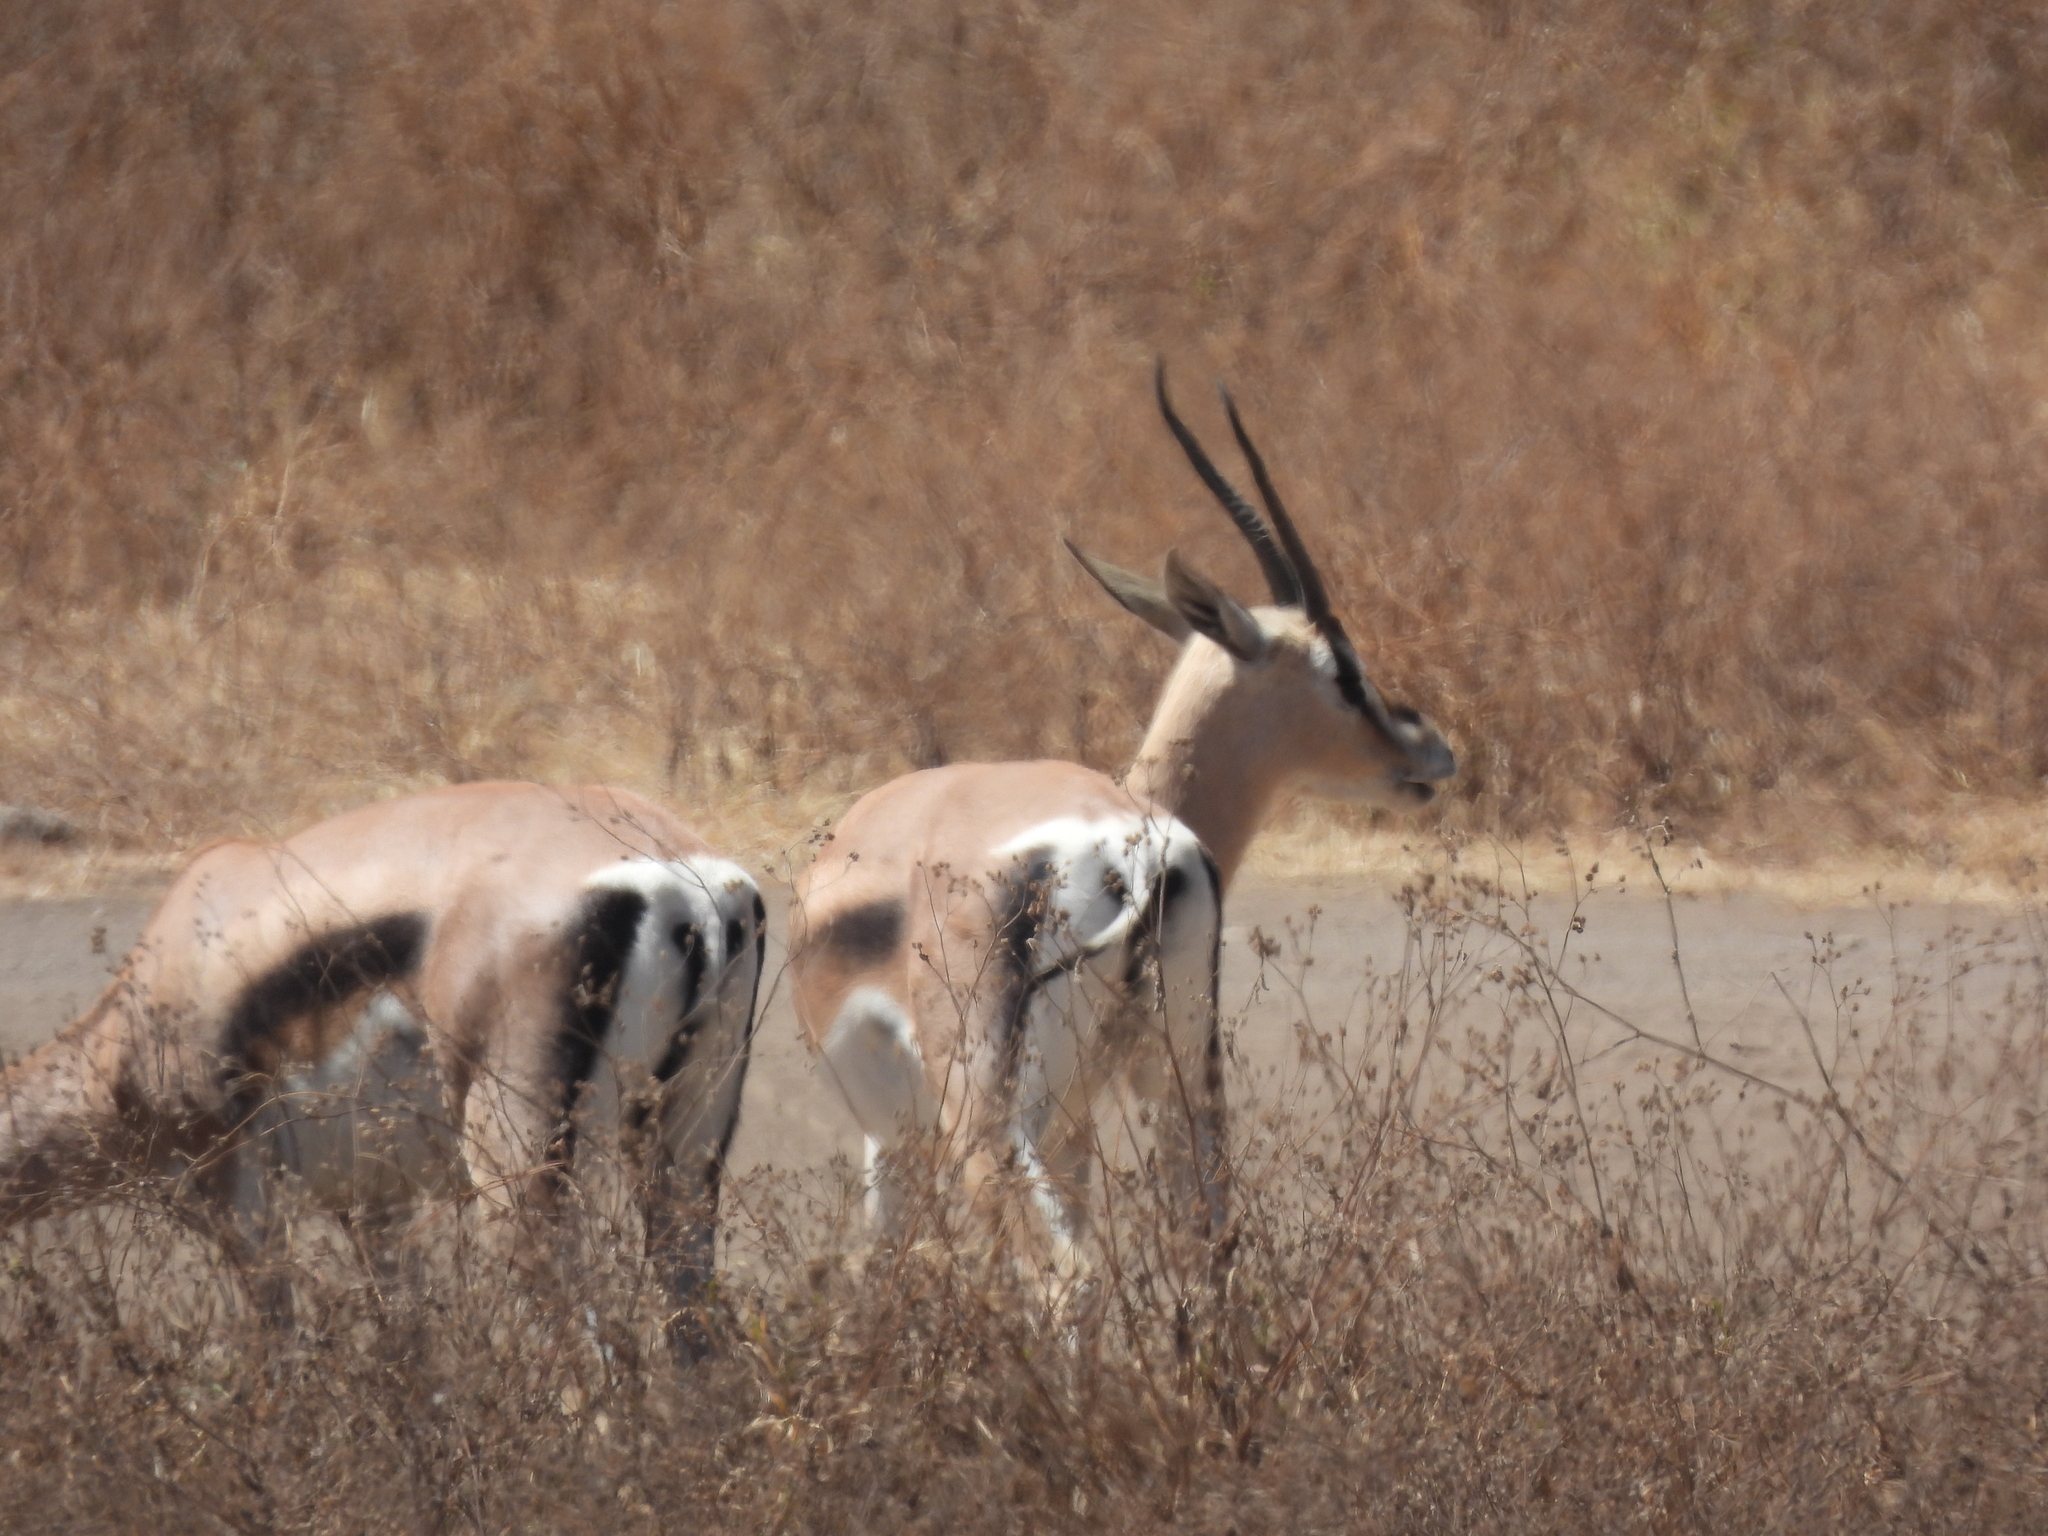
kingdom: Animalia
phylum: Chordata
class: Mammalia
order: Artiodactyla
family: Bovidae
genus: Nanger
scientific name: Nanger granti
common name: Grant's gazelle
